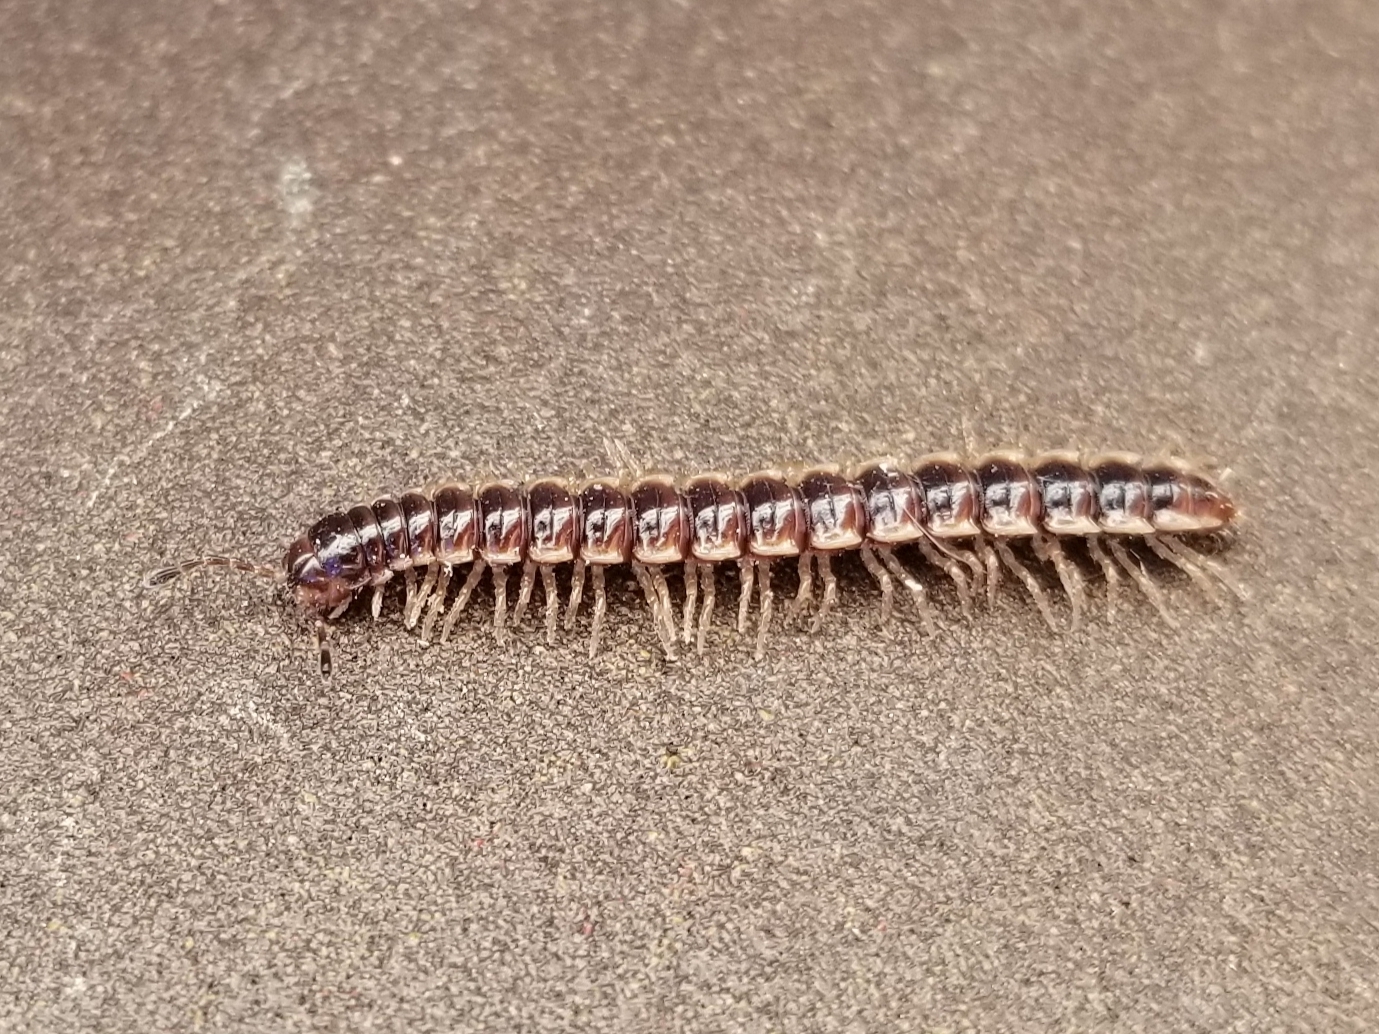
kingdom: Animalia
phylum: Arthropoda
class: Diplopoda
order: Polydesmida
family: Paradoxosomatidae
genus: Oxidus
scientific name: Oxidus gracilis
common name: Greenhouse millipede
